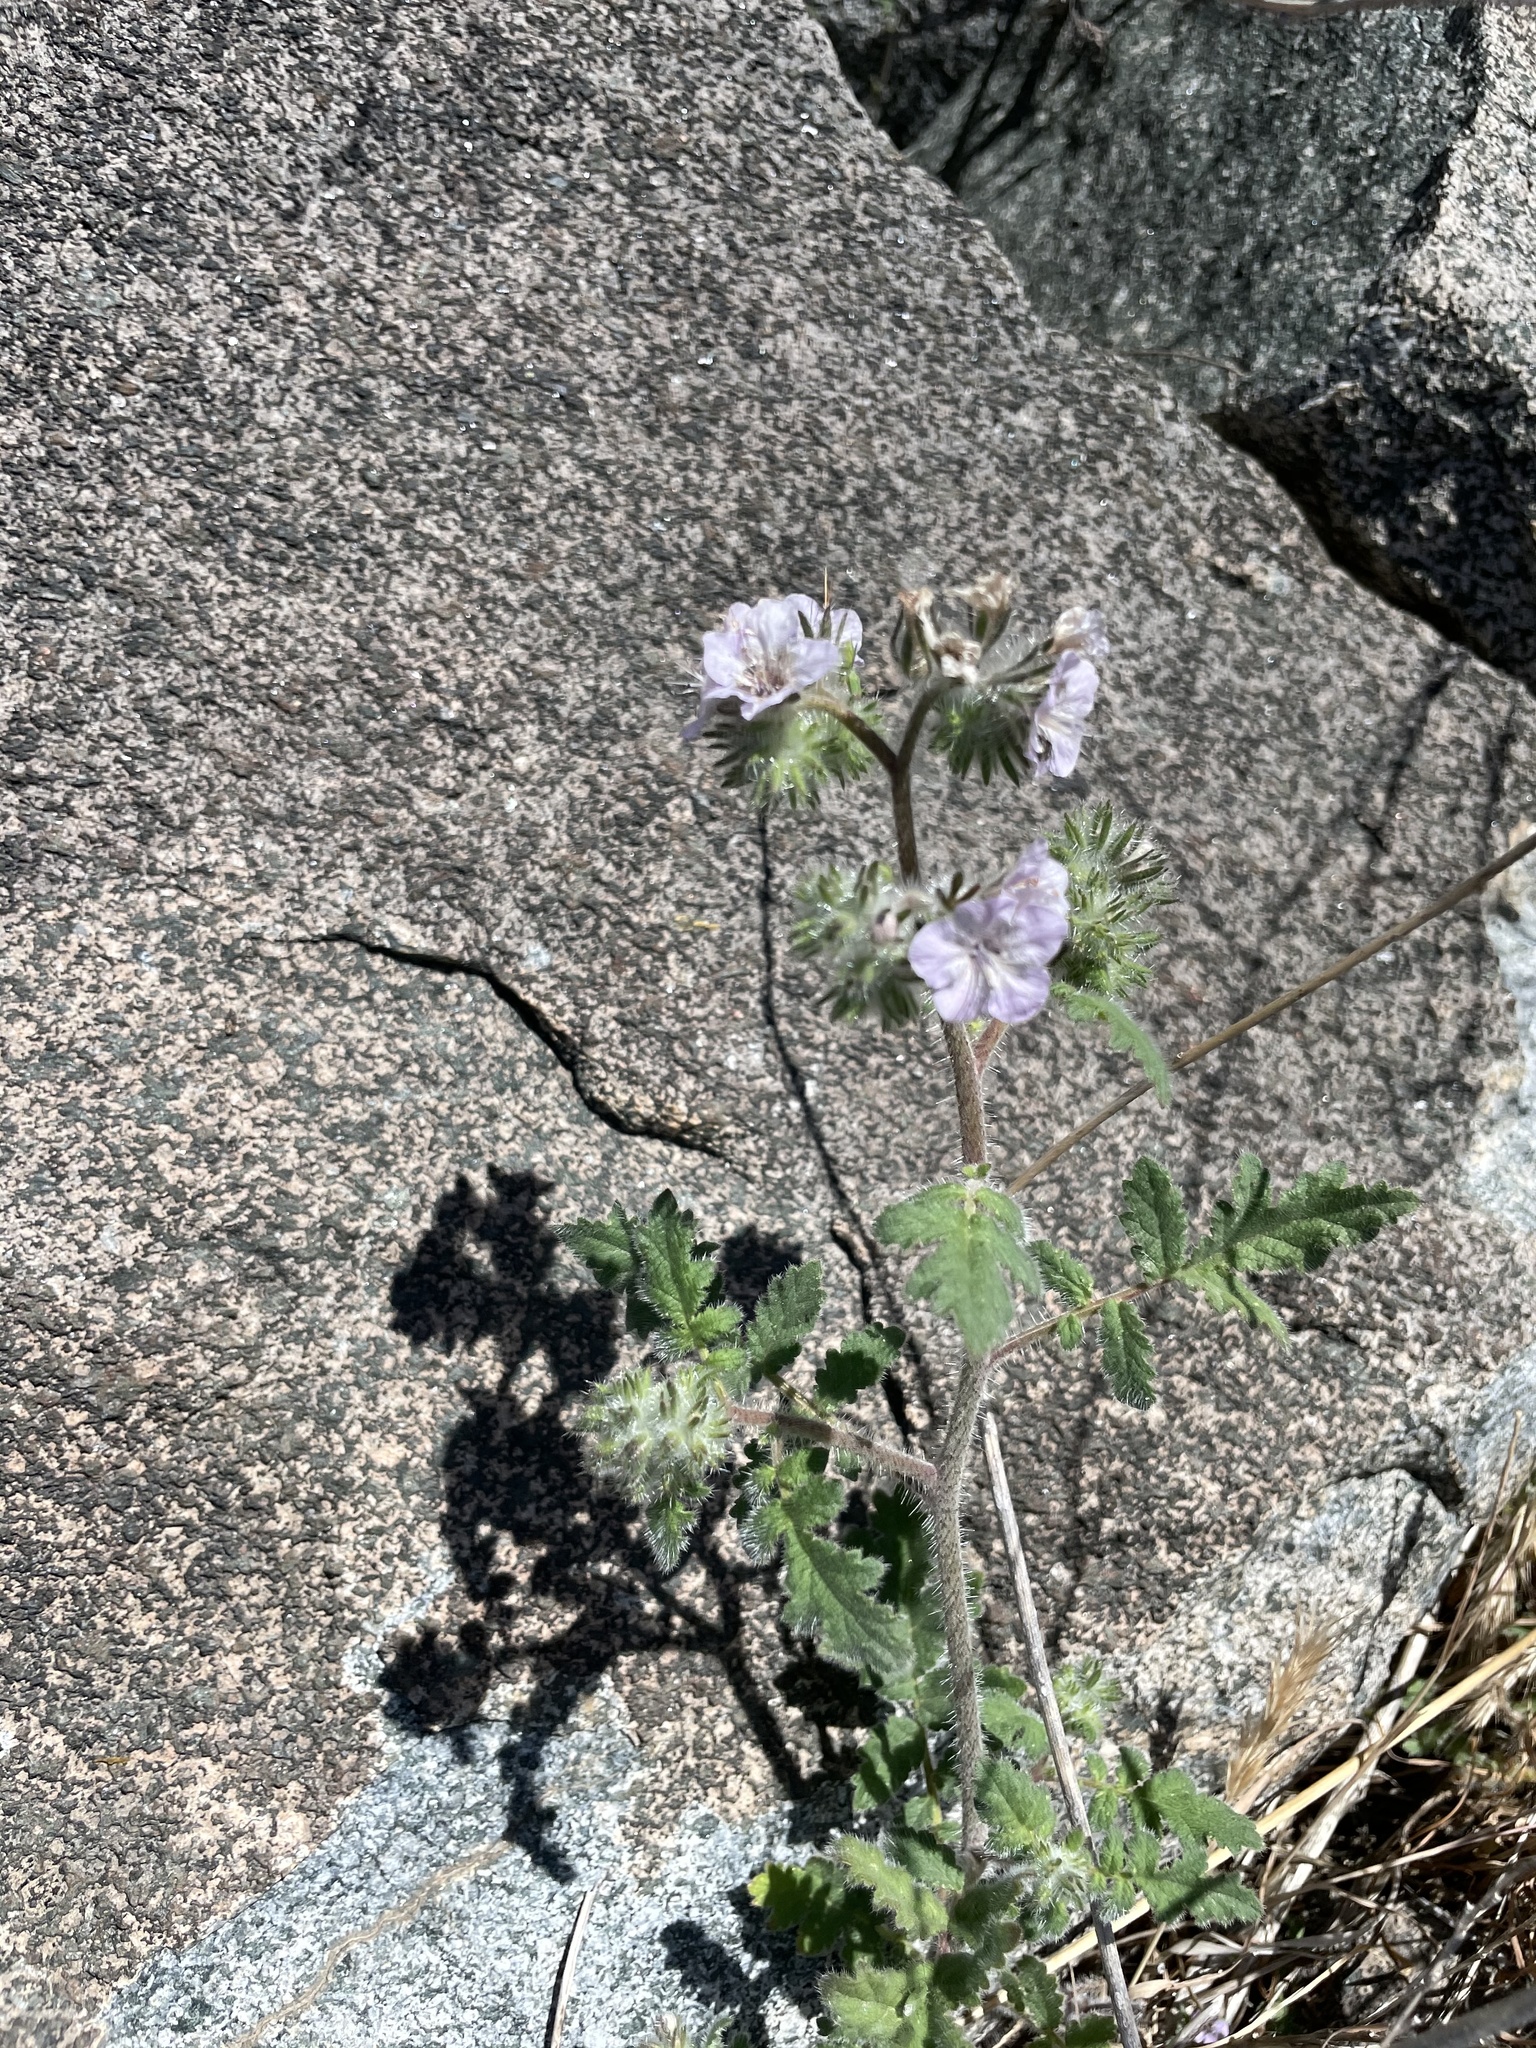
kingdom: Plantae
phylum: Tracheophyta
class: Magnoliopsida
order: Boraginales
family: Hydrophyllaceae
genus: Phacelia
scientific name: Phacelia cicutaria
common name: Caterpillar phacelia
